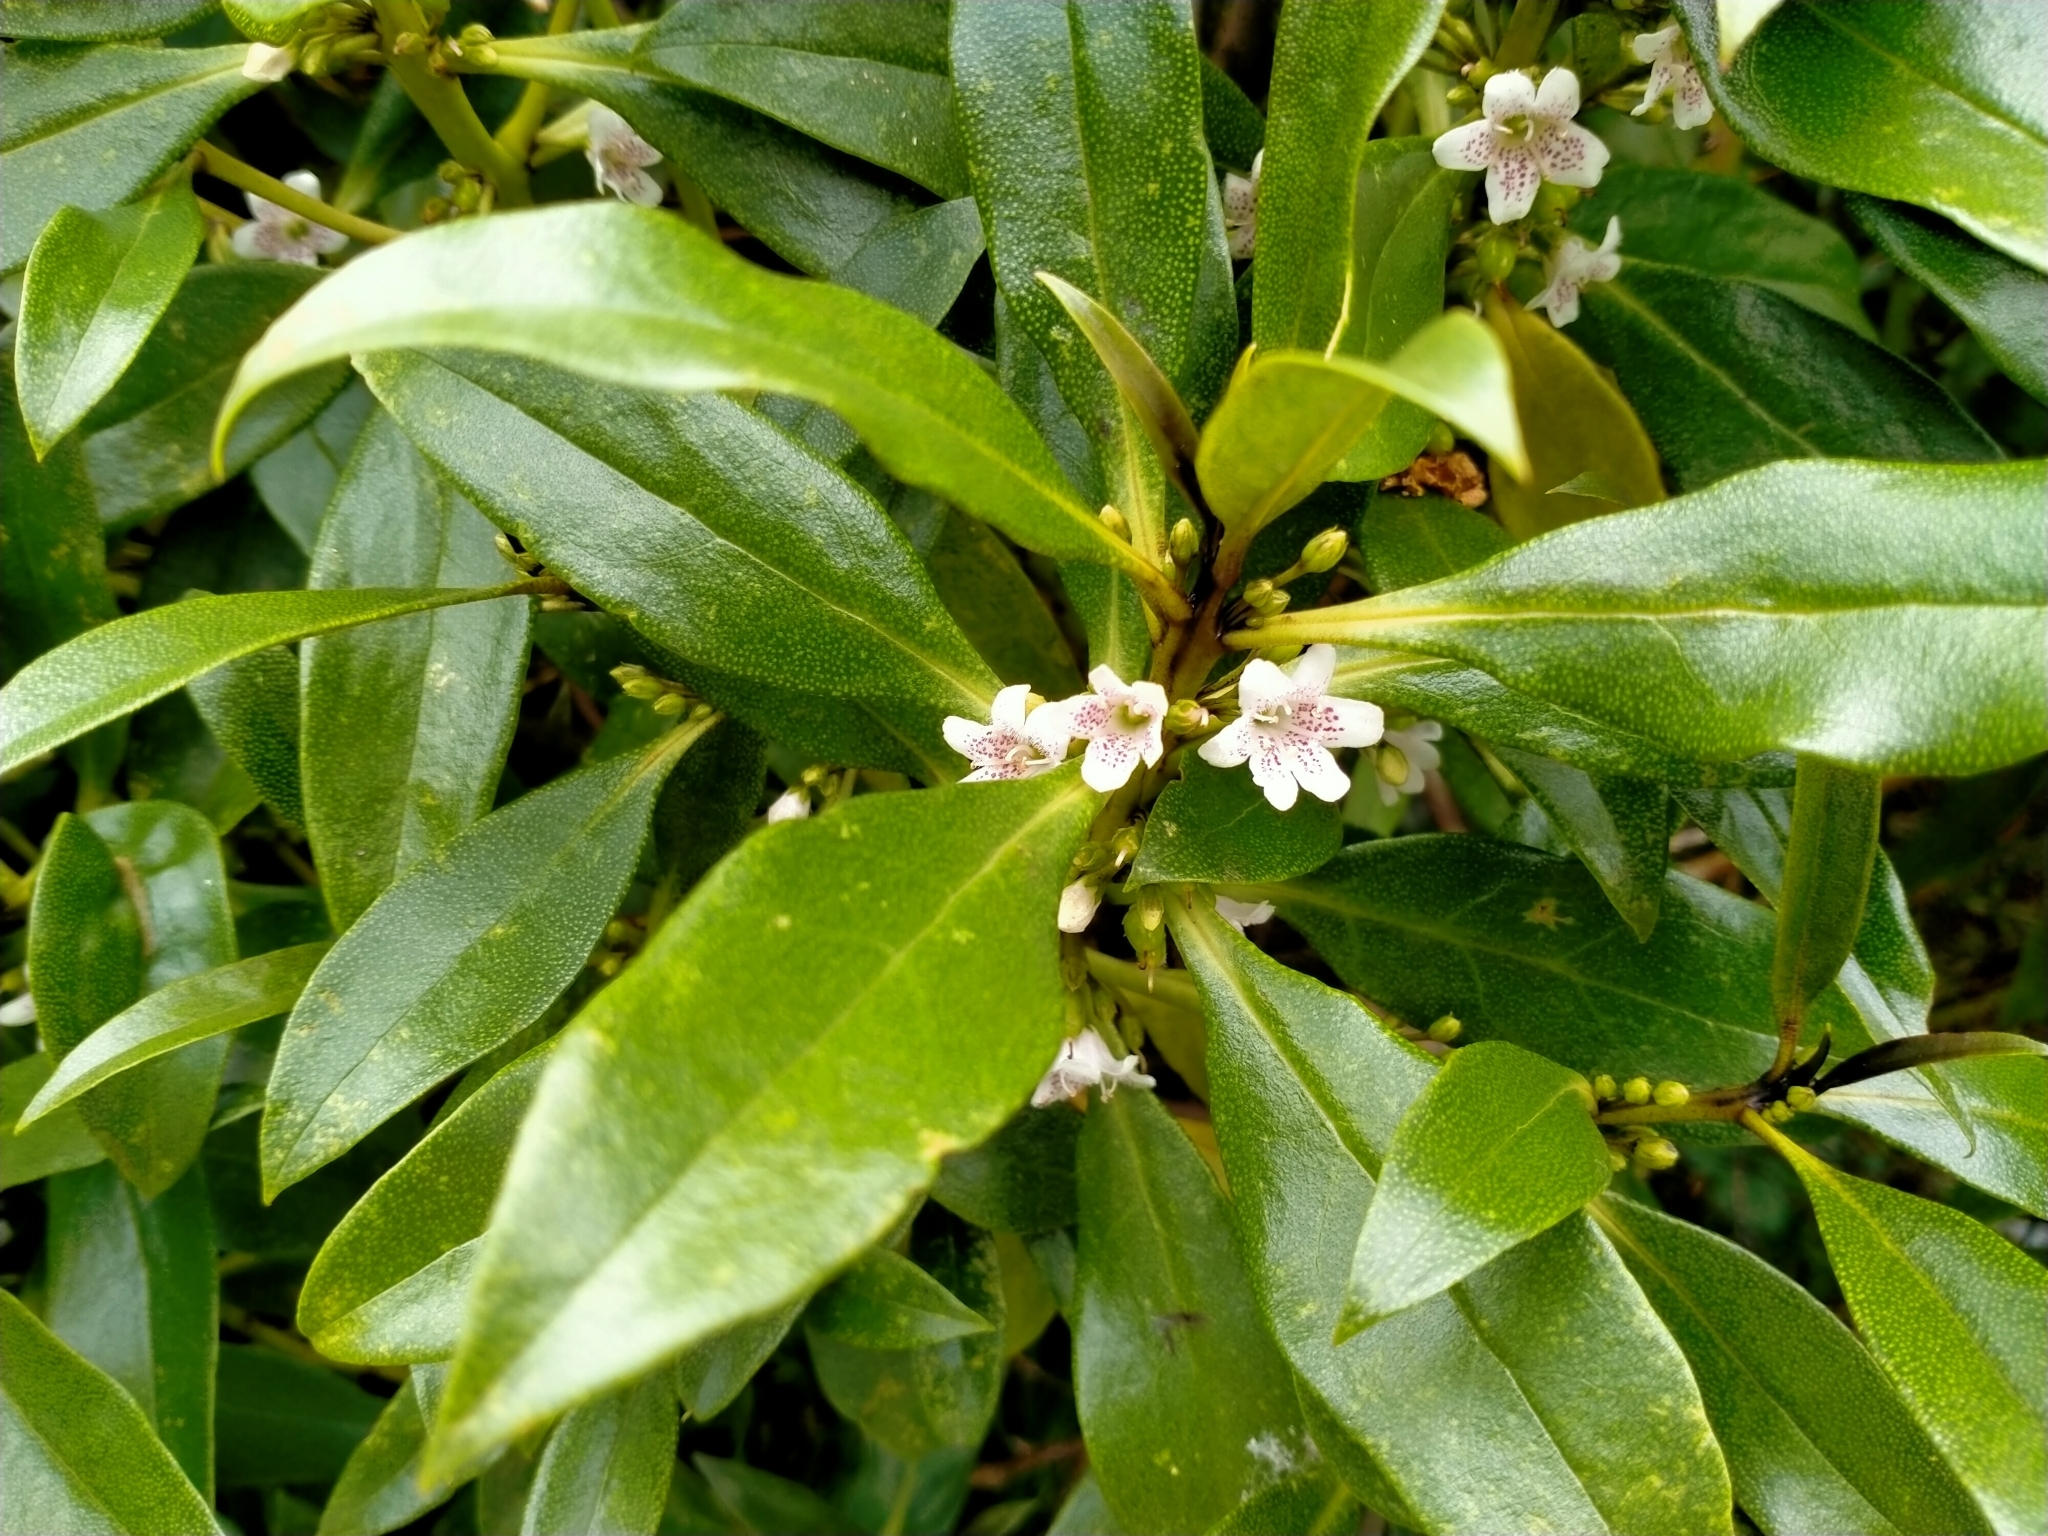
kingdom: Plantae
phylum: Tracheophyta
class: Magnoliopsida
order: Lamiales
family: Scrophulariaceae
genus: Myoporum
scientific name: Myoporum laetum
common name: Ngaio tree
